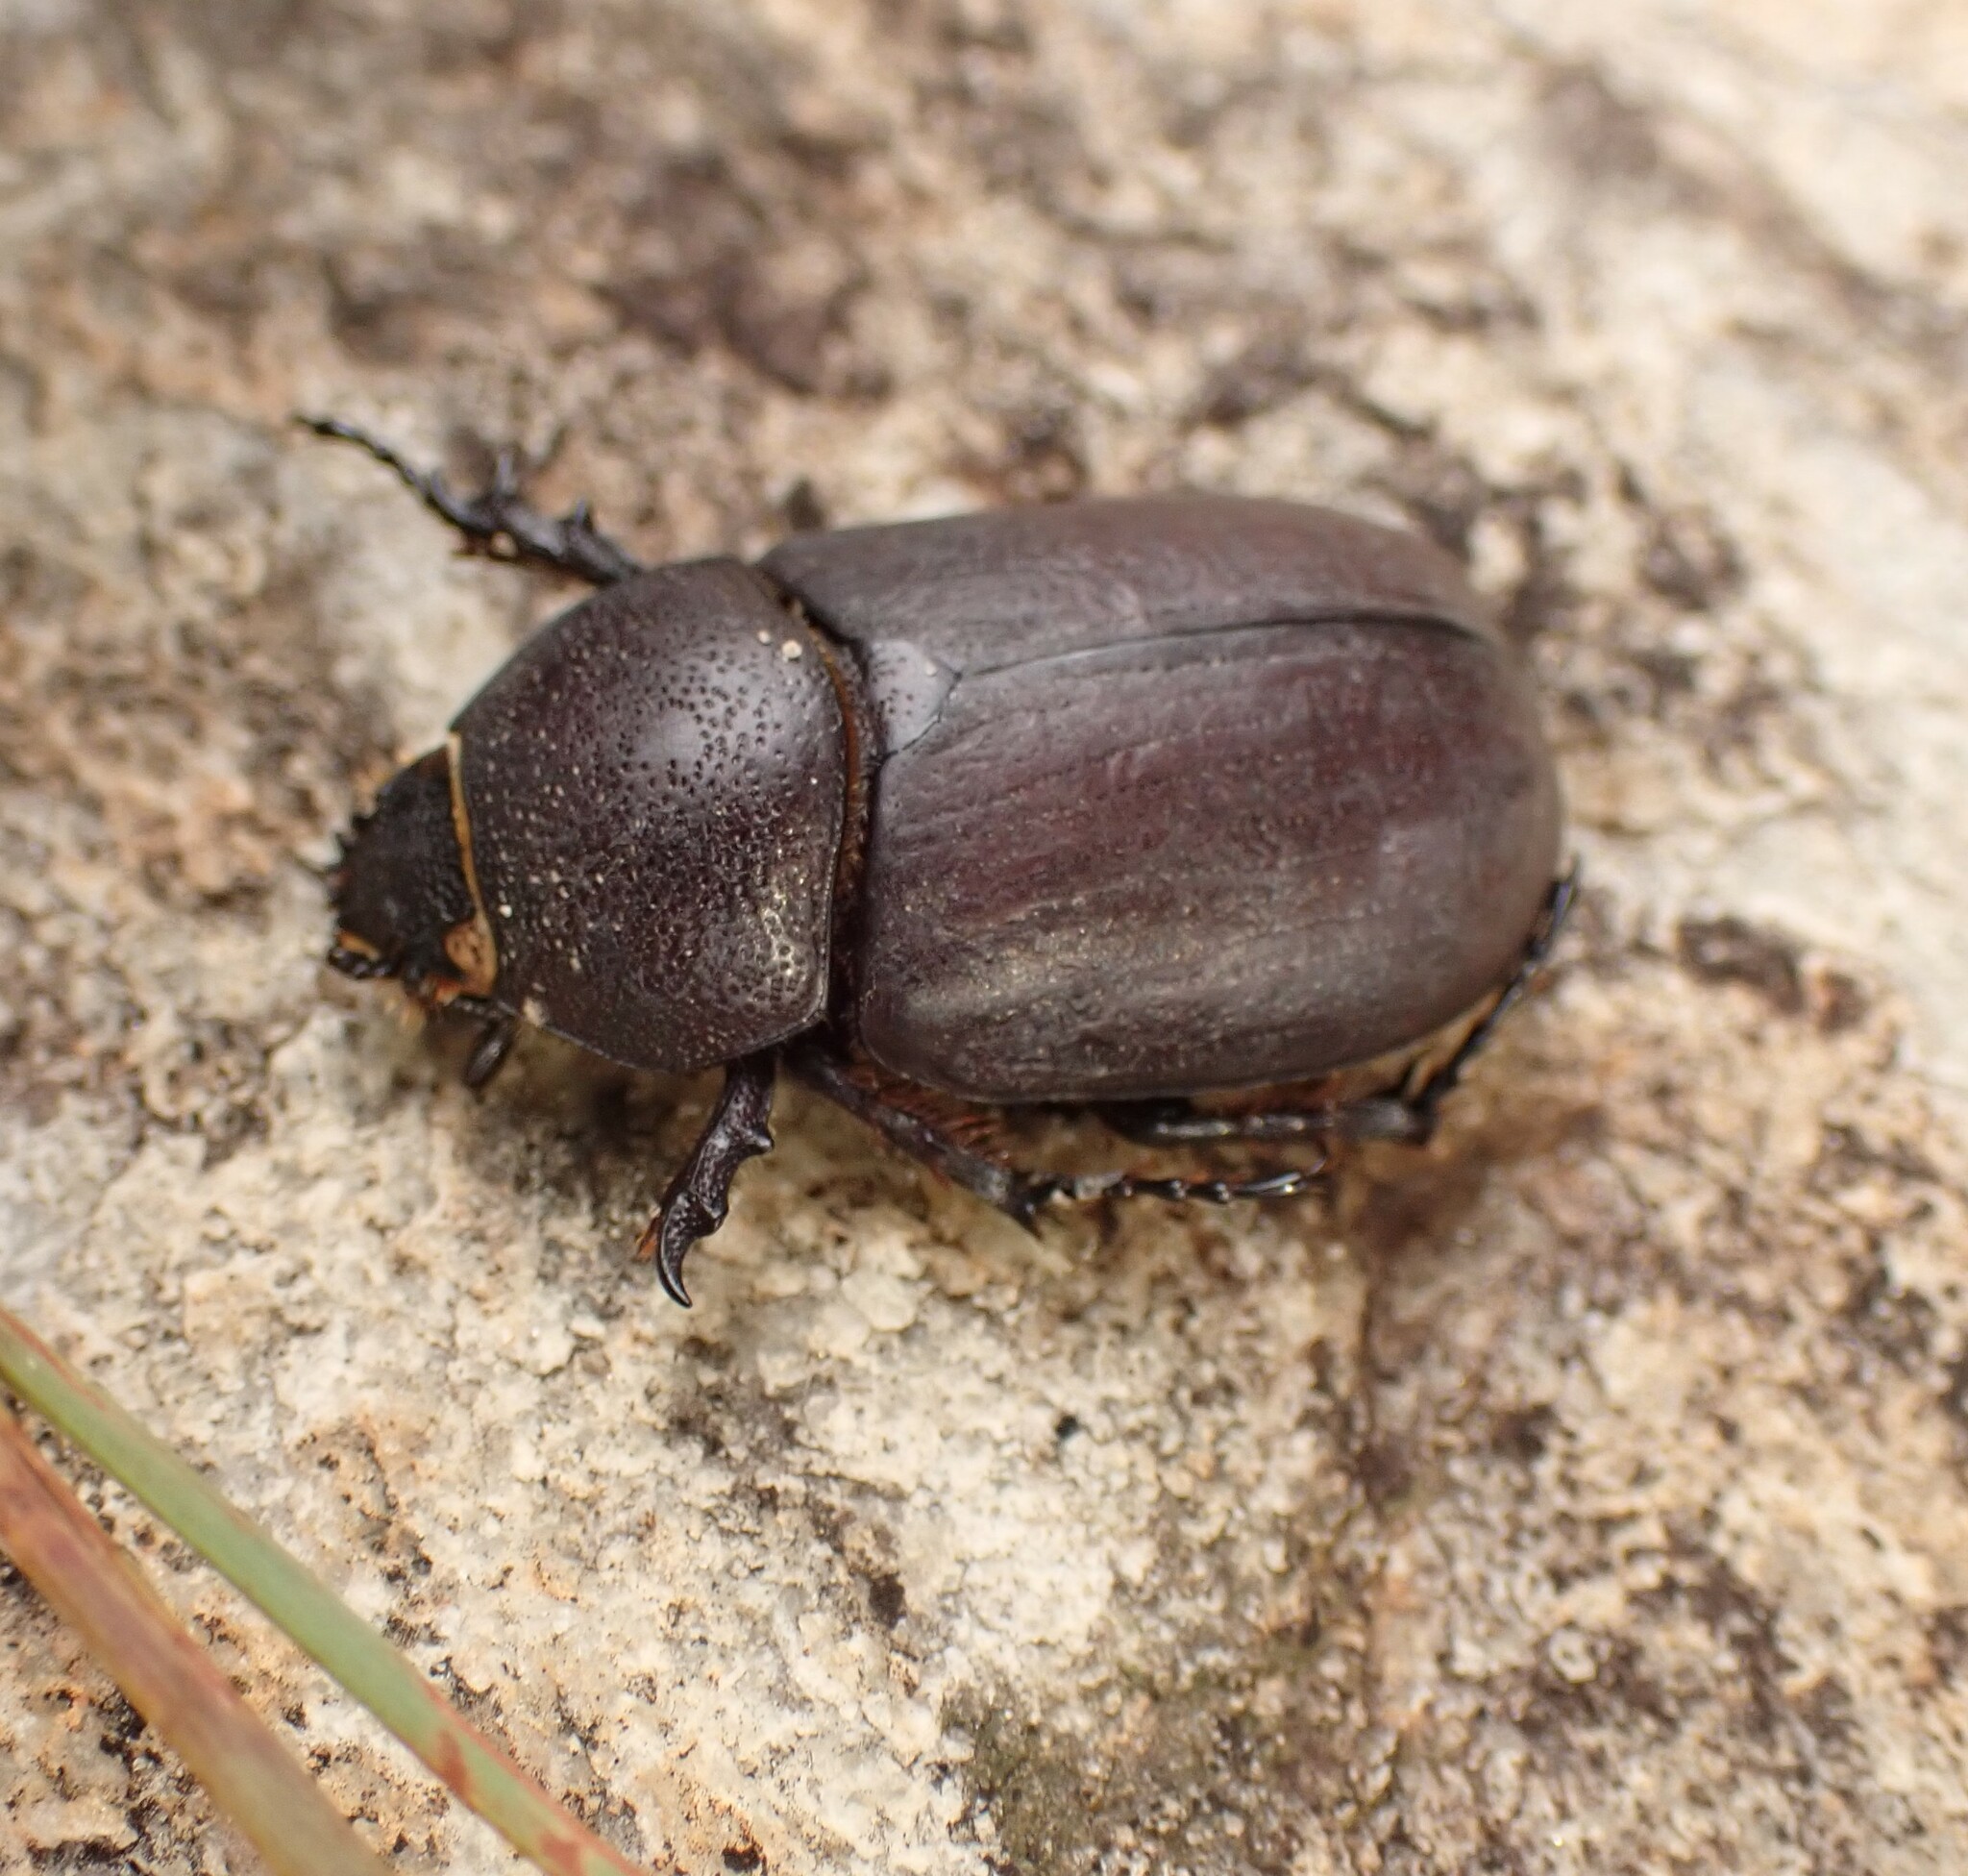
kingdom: Animalia
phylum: Arthropoda
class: Insecta
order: Coleoptera
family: Scarabaeidae
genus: Coelosis
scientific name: Coelosis bicornis
